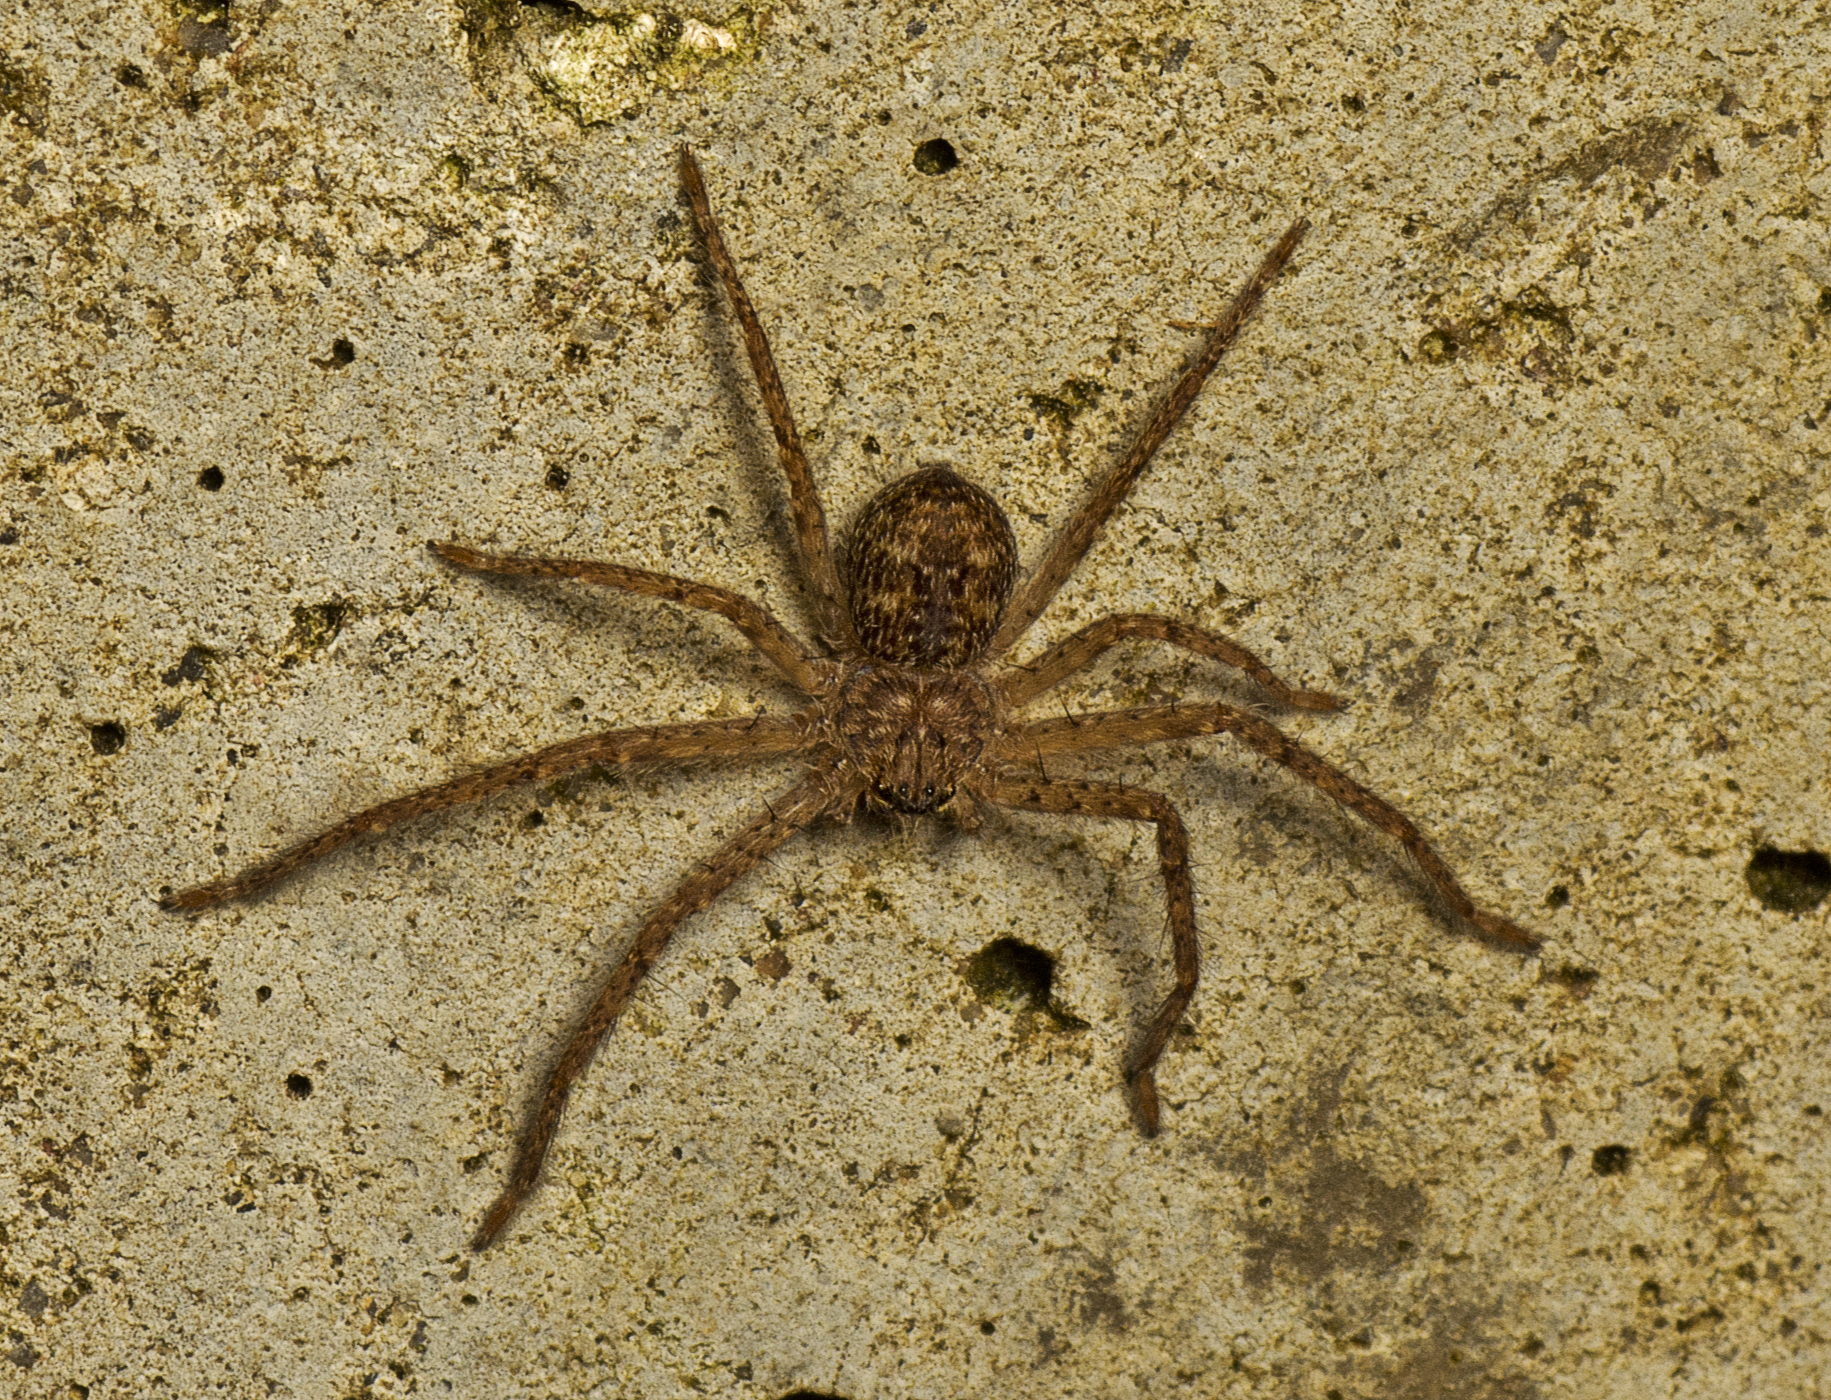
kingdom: Animalia
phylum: Arthropoda
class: Arachnida
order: Araneae
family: Sparassidae
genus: Isopeda
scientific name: Isopeda brachyseta
